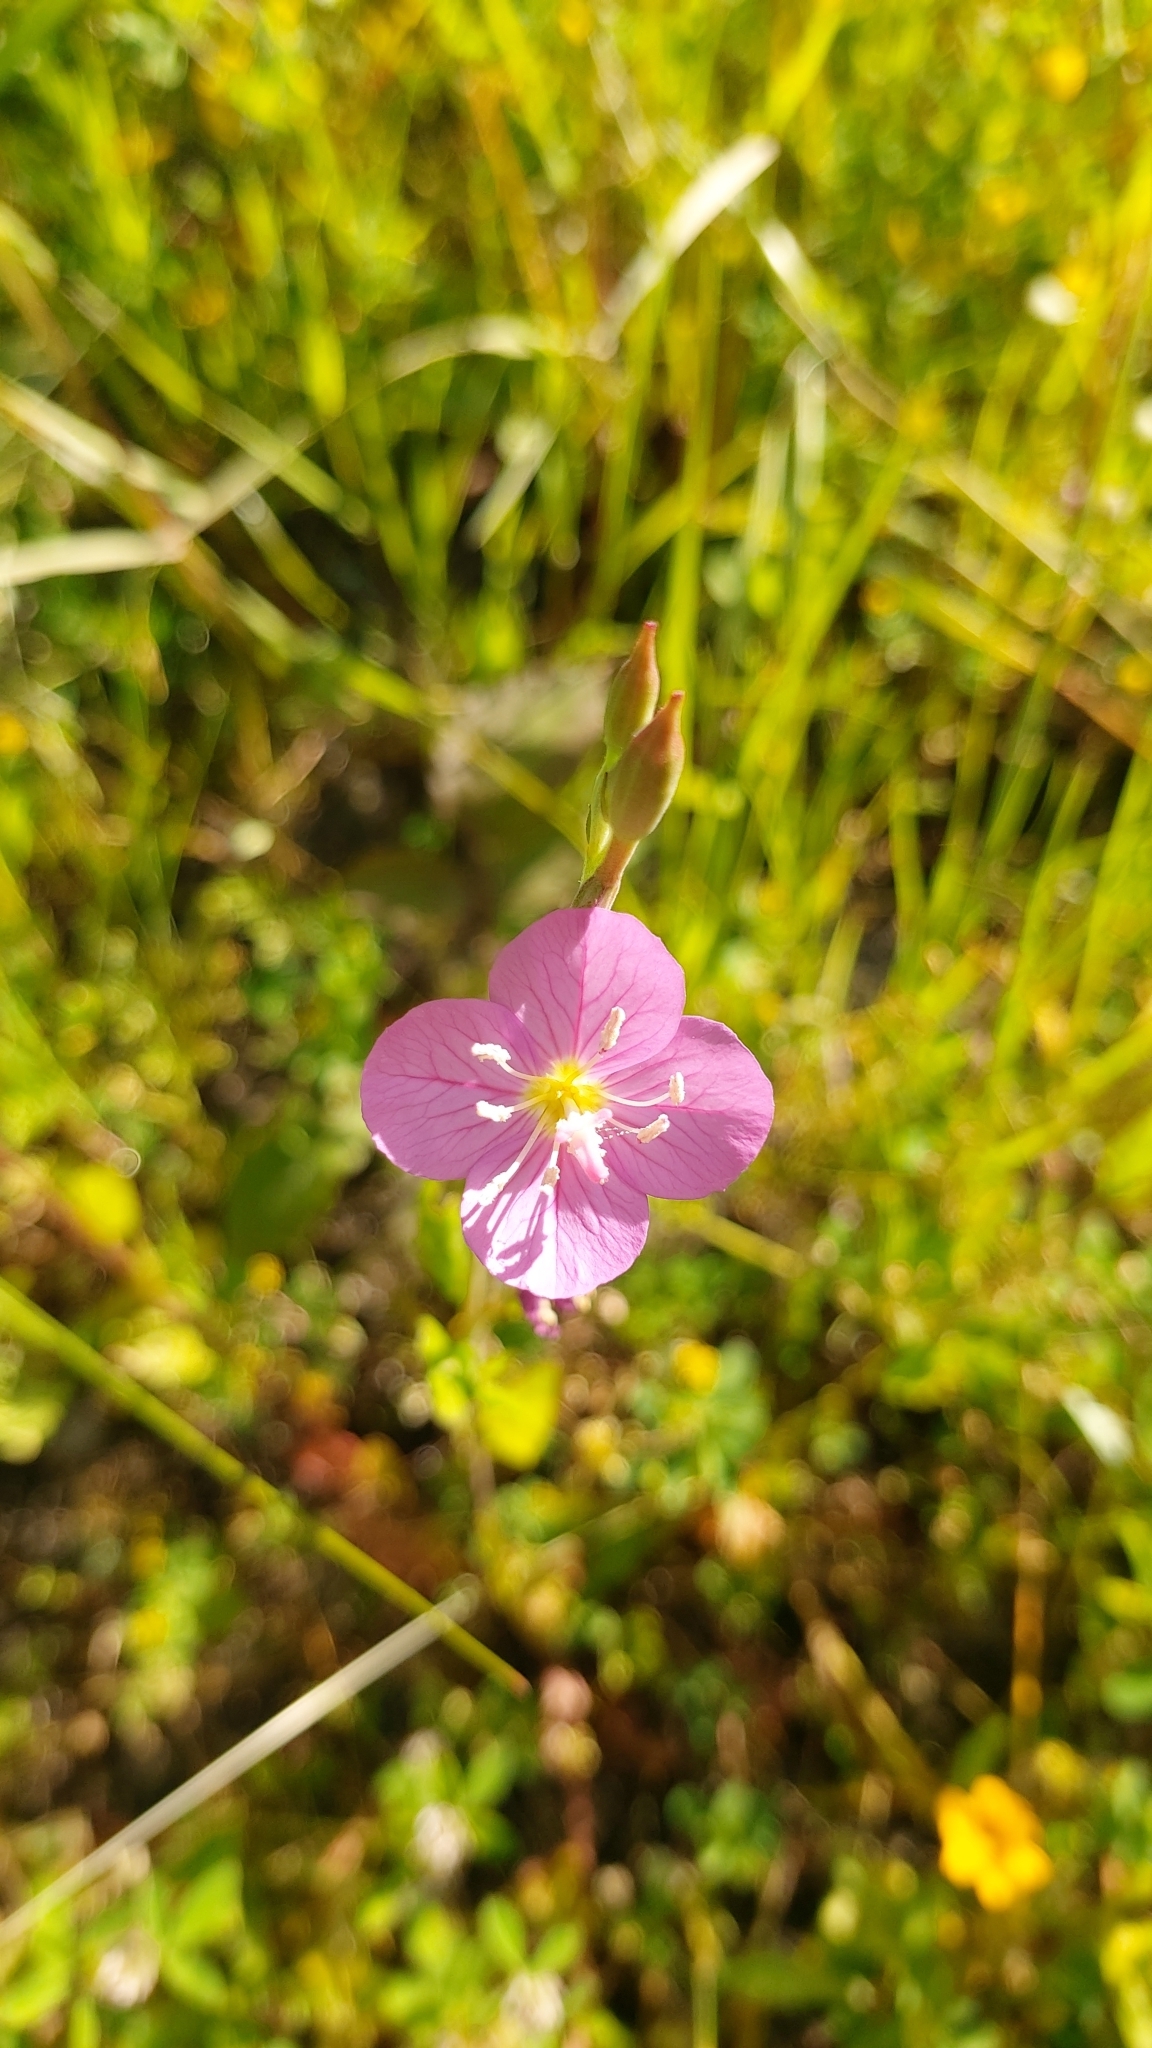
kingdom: Plantae
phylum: Tracheophyta
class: Magnoliopsida
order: Myrtales
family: Onagraceae
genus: Oenothera
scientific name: Oenothera rosea
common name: Rosy evening-primrose
